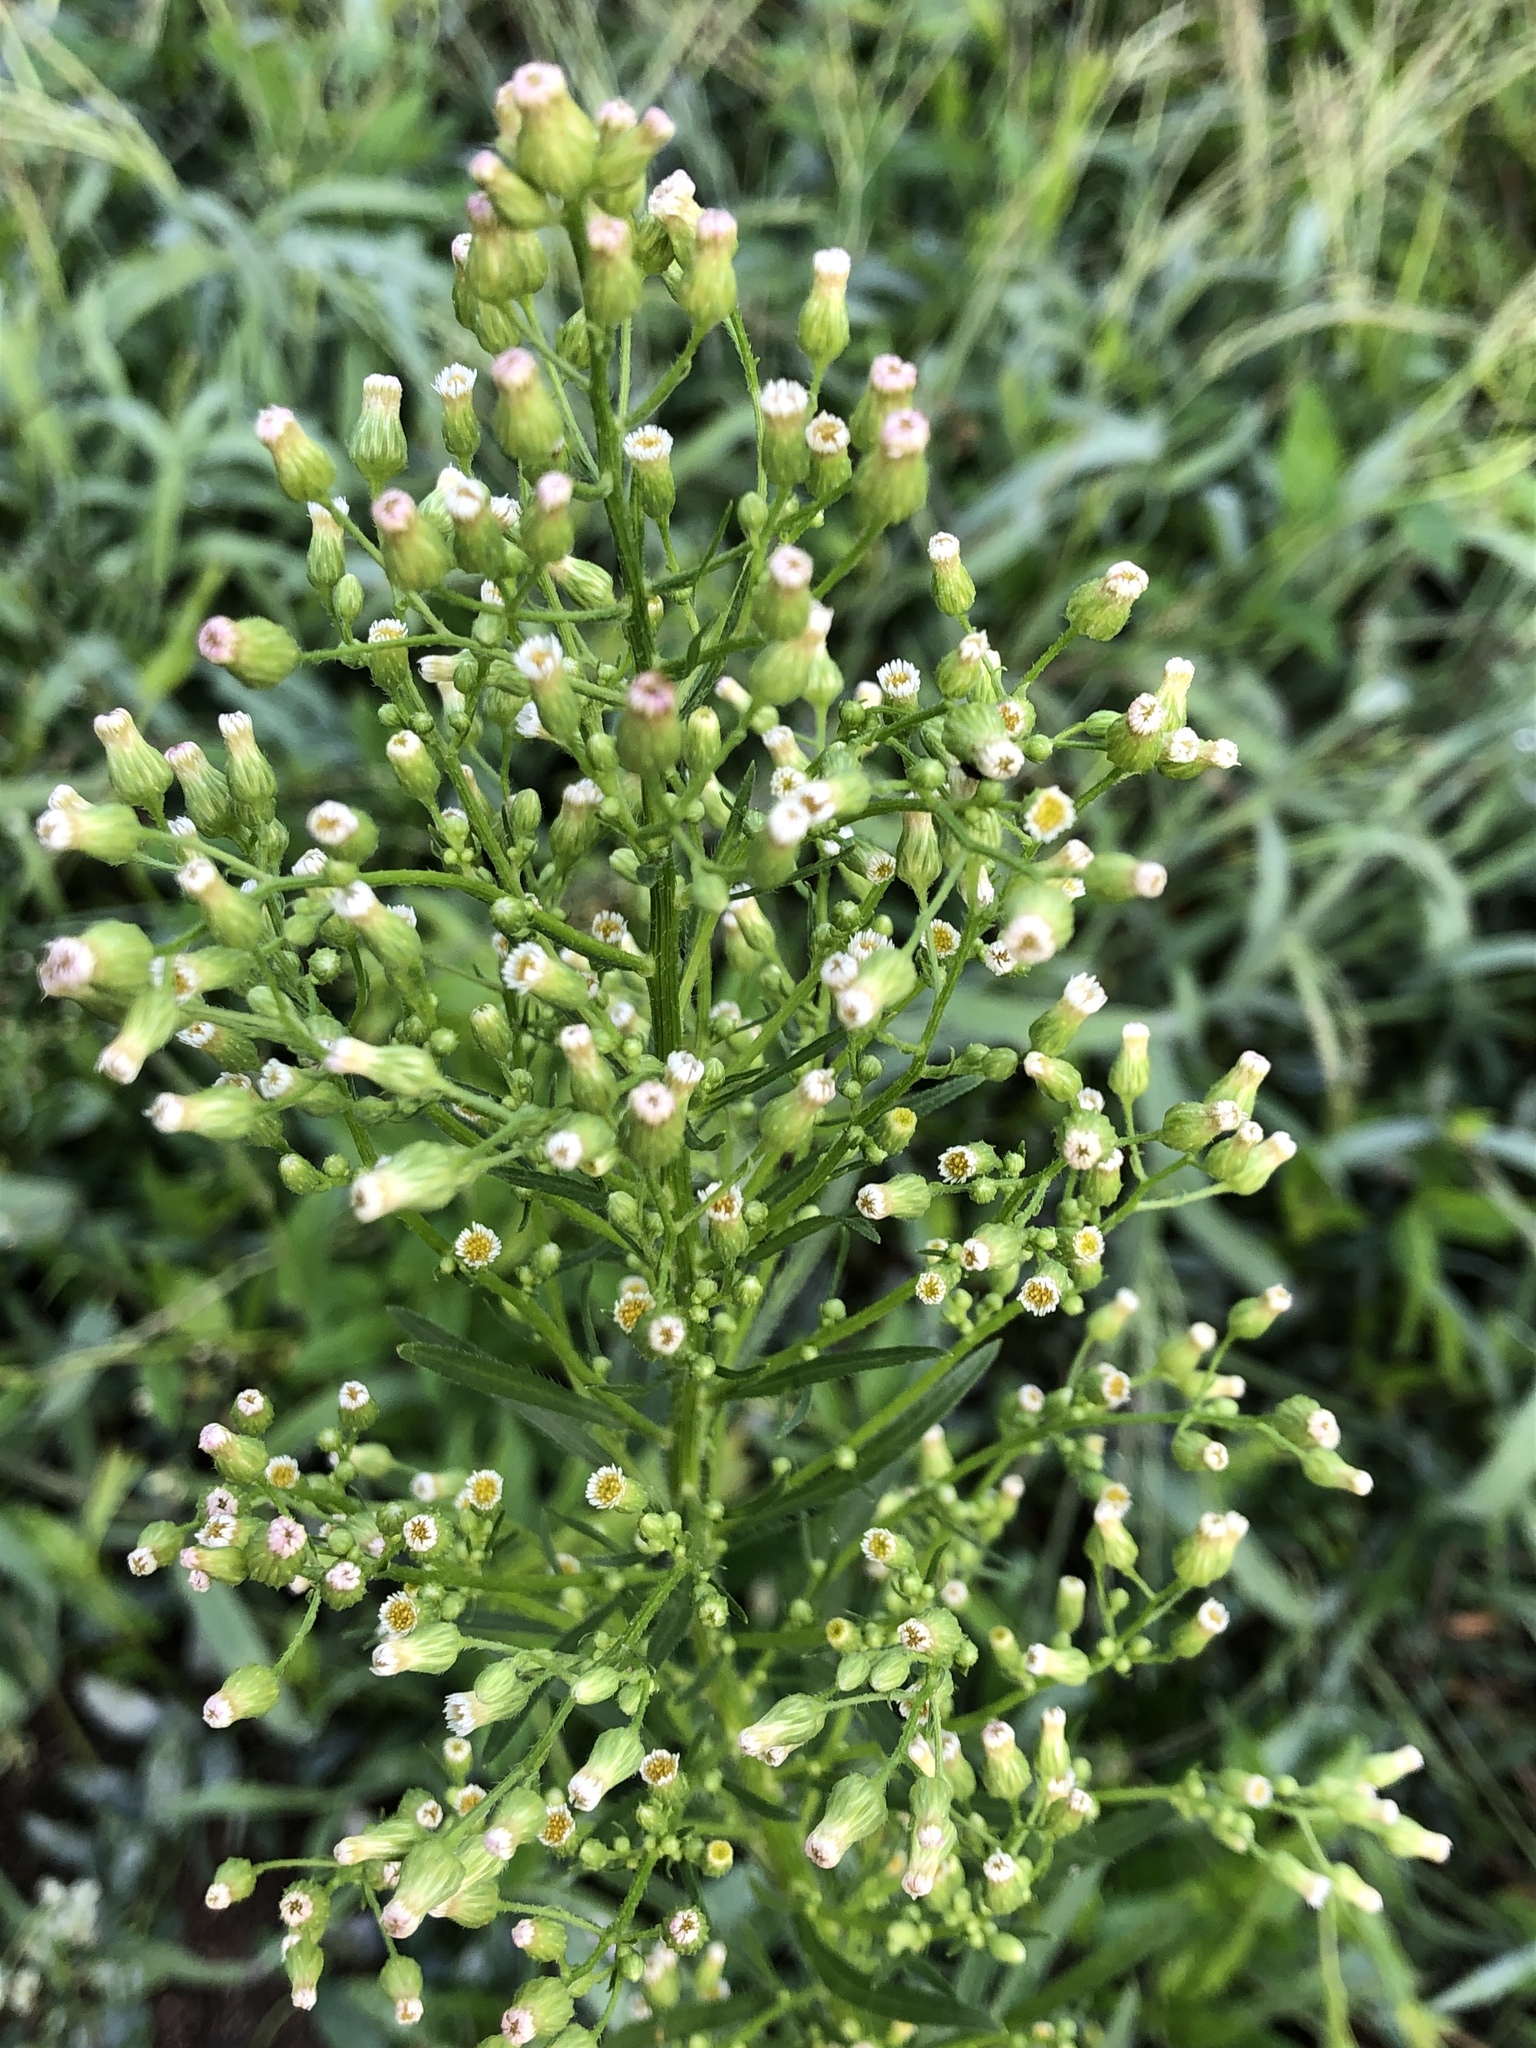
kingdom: Plantae
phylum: Tracheophyta
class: Magnoliopsida
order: Asterales
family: Asteraceae
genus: Erigeron
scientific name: Erigeron canadensis
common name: Canadian fleabane
